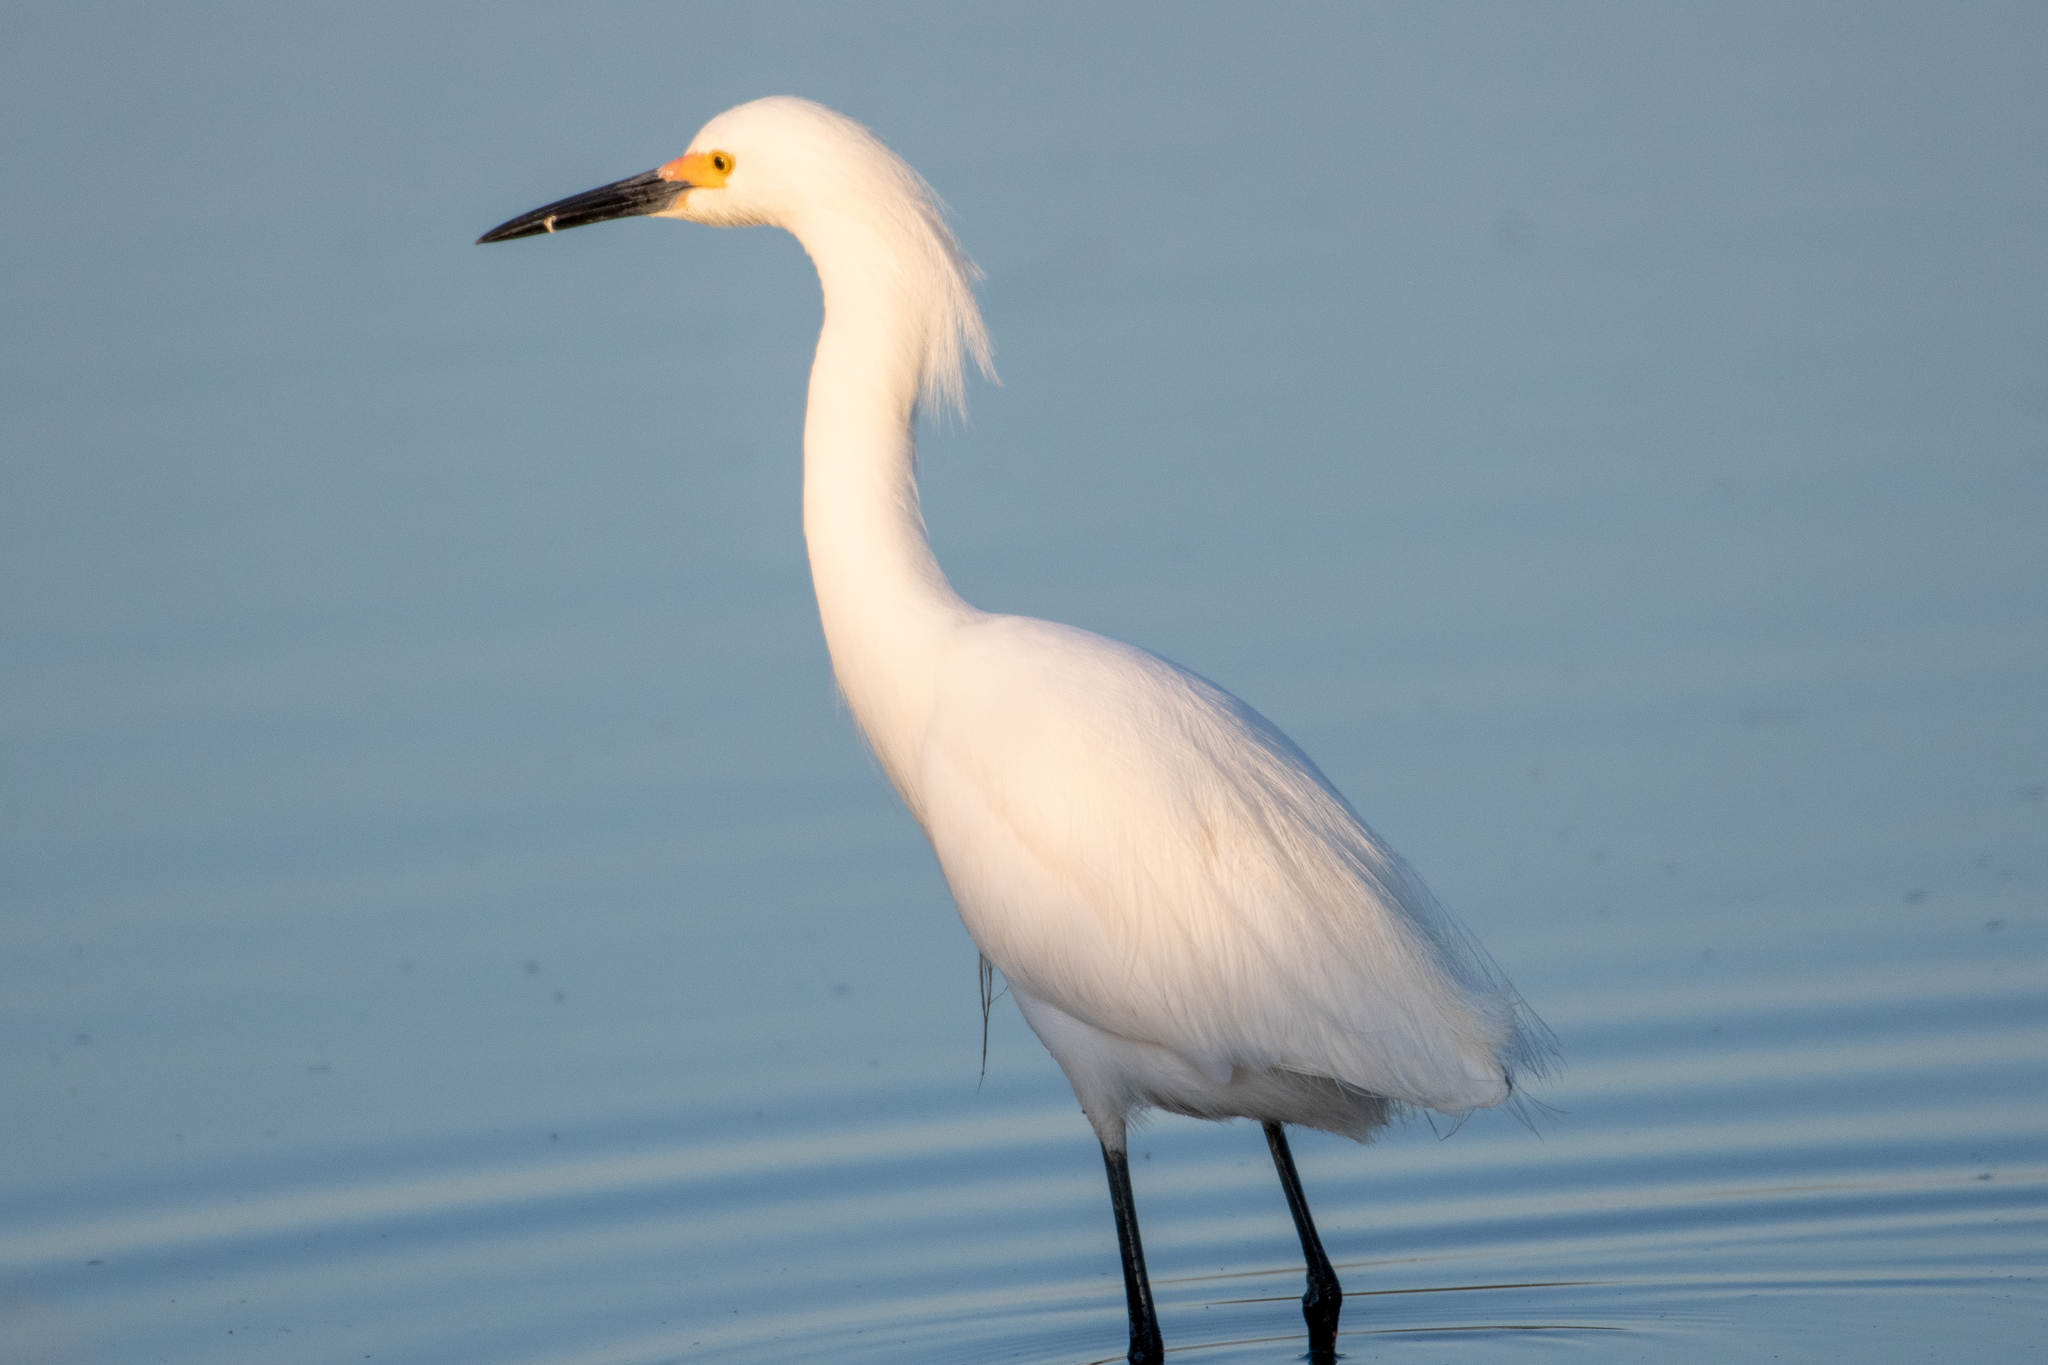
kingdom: Animalia
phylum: Chordata
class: Aves
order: Pelecaniformes
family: Ardeidae
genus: Egretta
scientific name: Egretta thula
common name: Snowy egret
